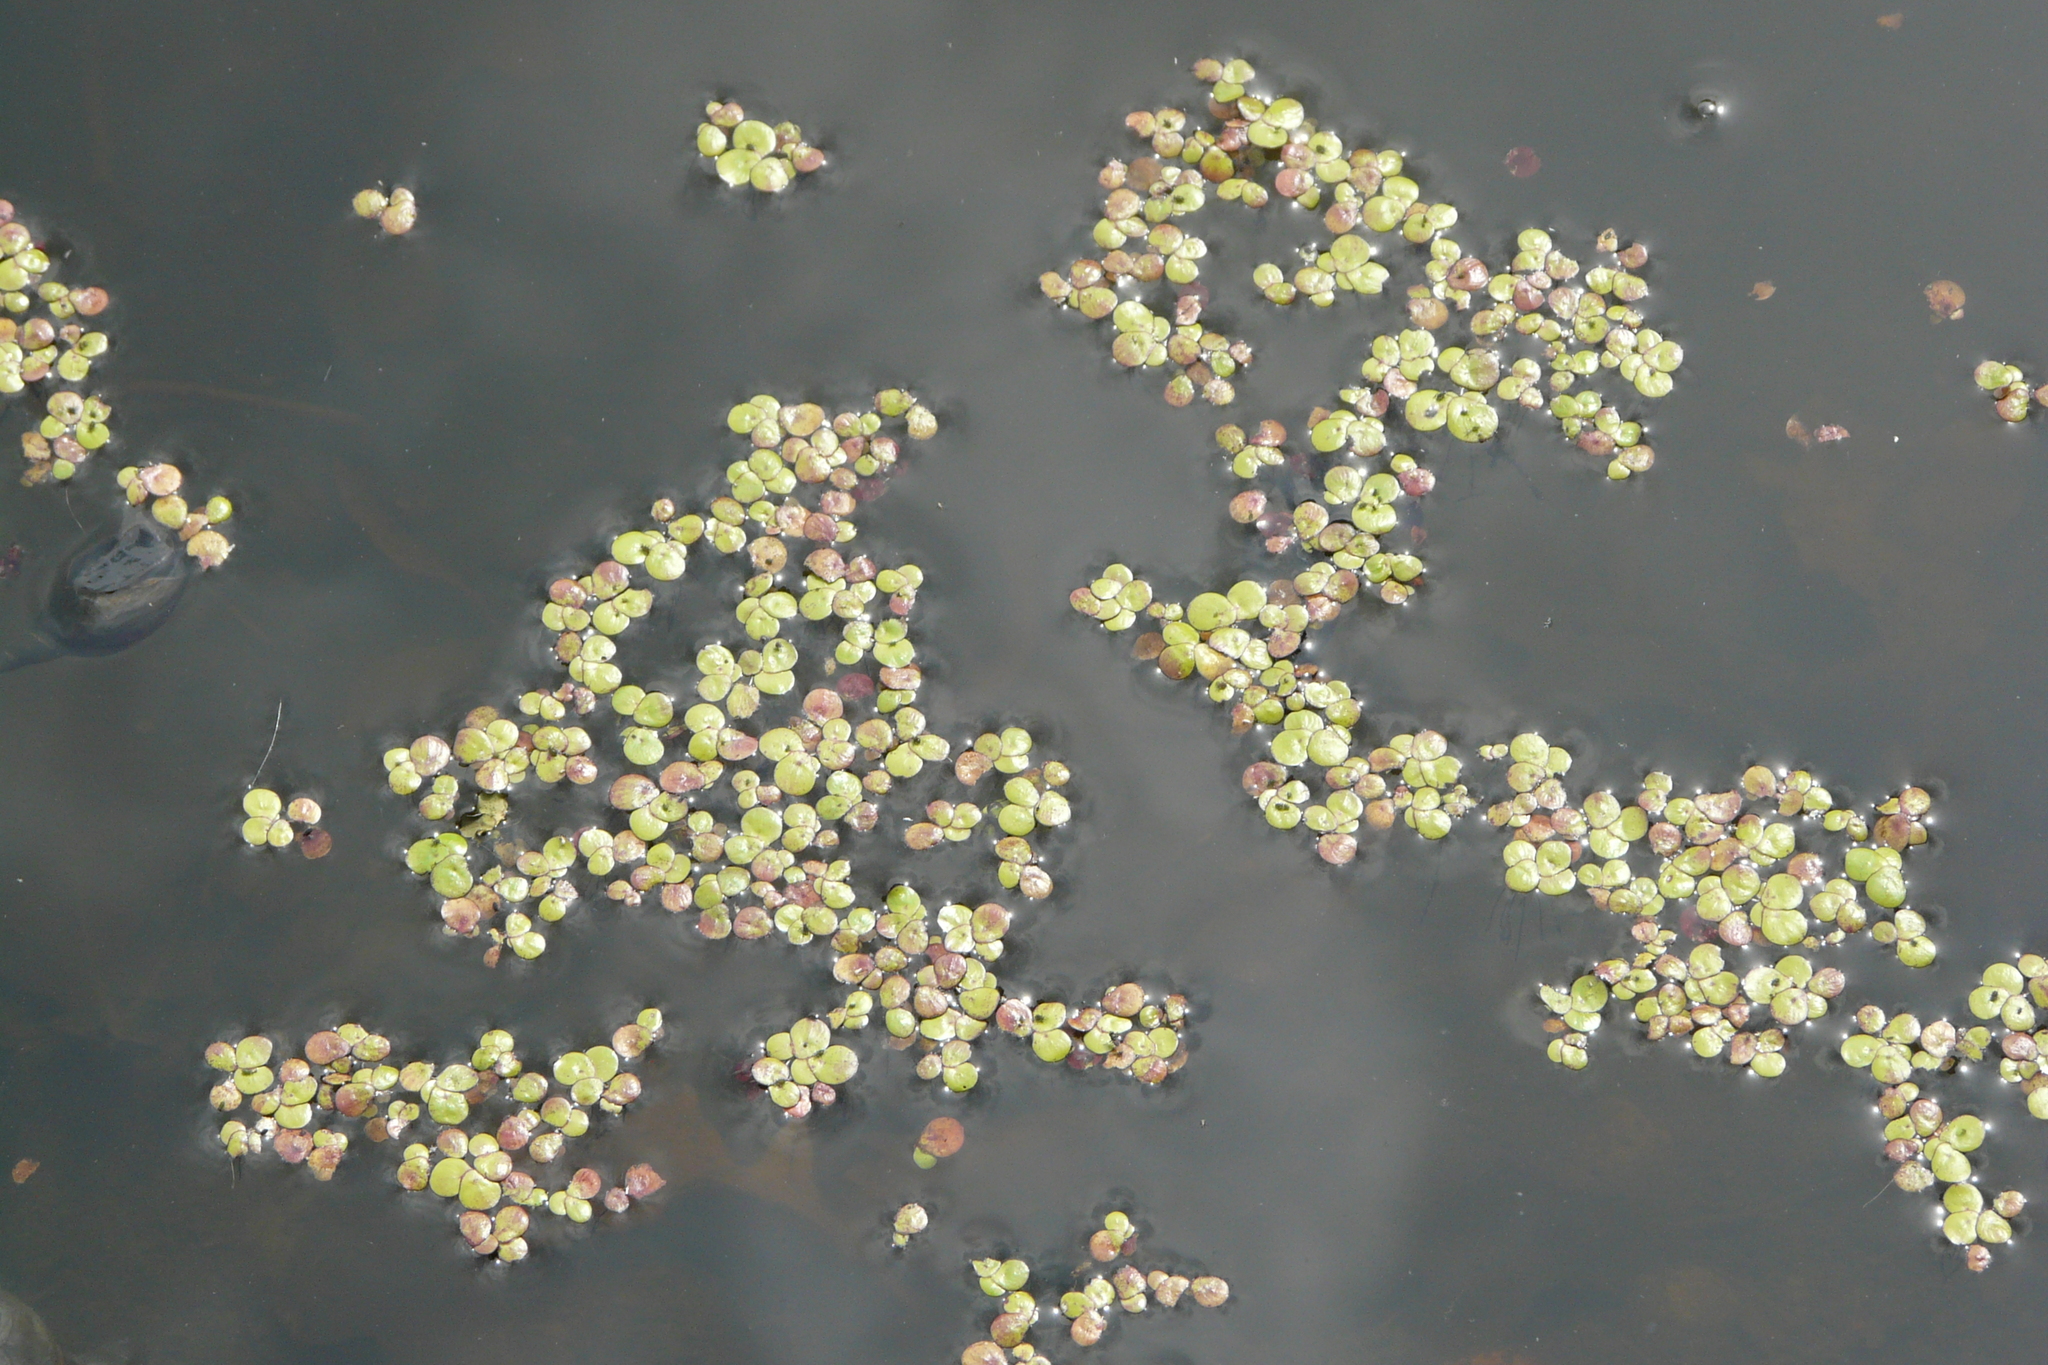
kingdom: Plantae
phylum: Tracheophyta
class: Liliopsida
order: Alismatales
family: Araceae
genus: Lemna
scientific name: Lemna minor
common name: Common duckweed
